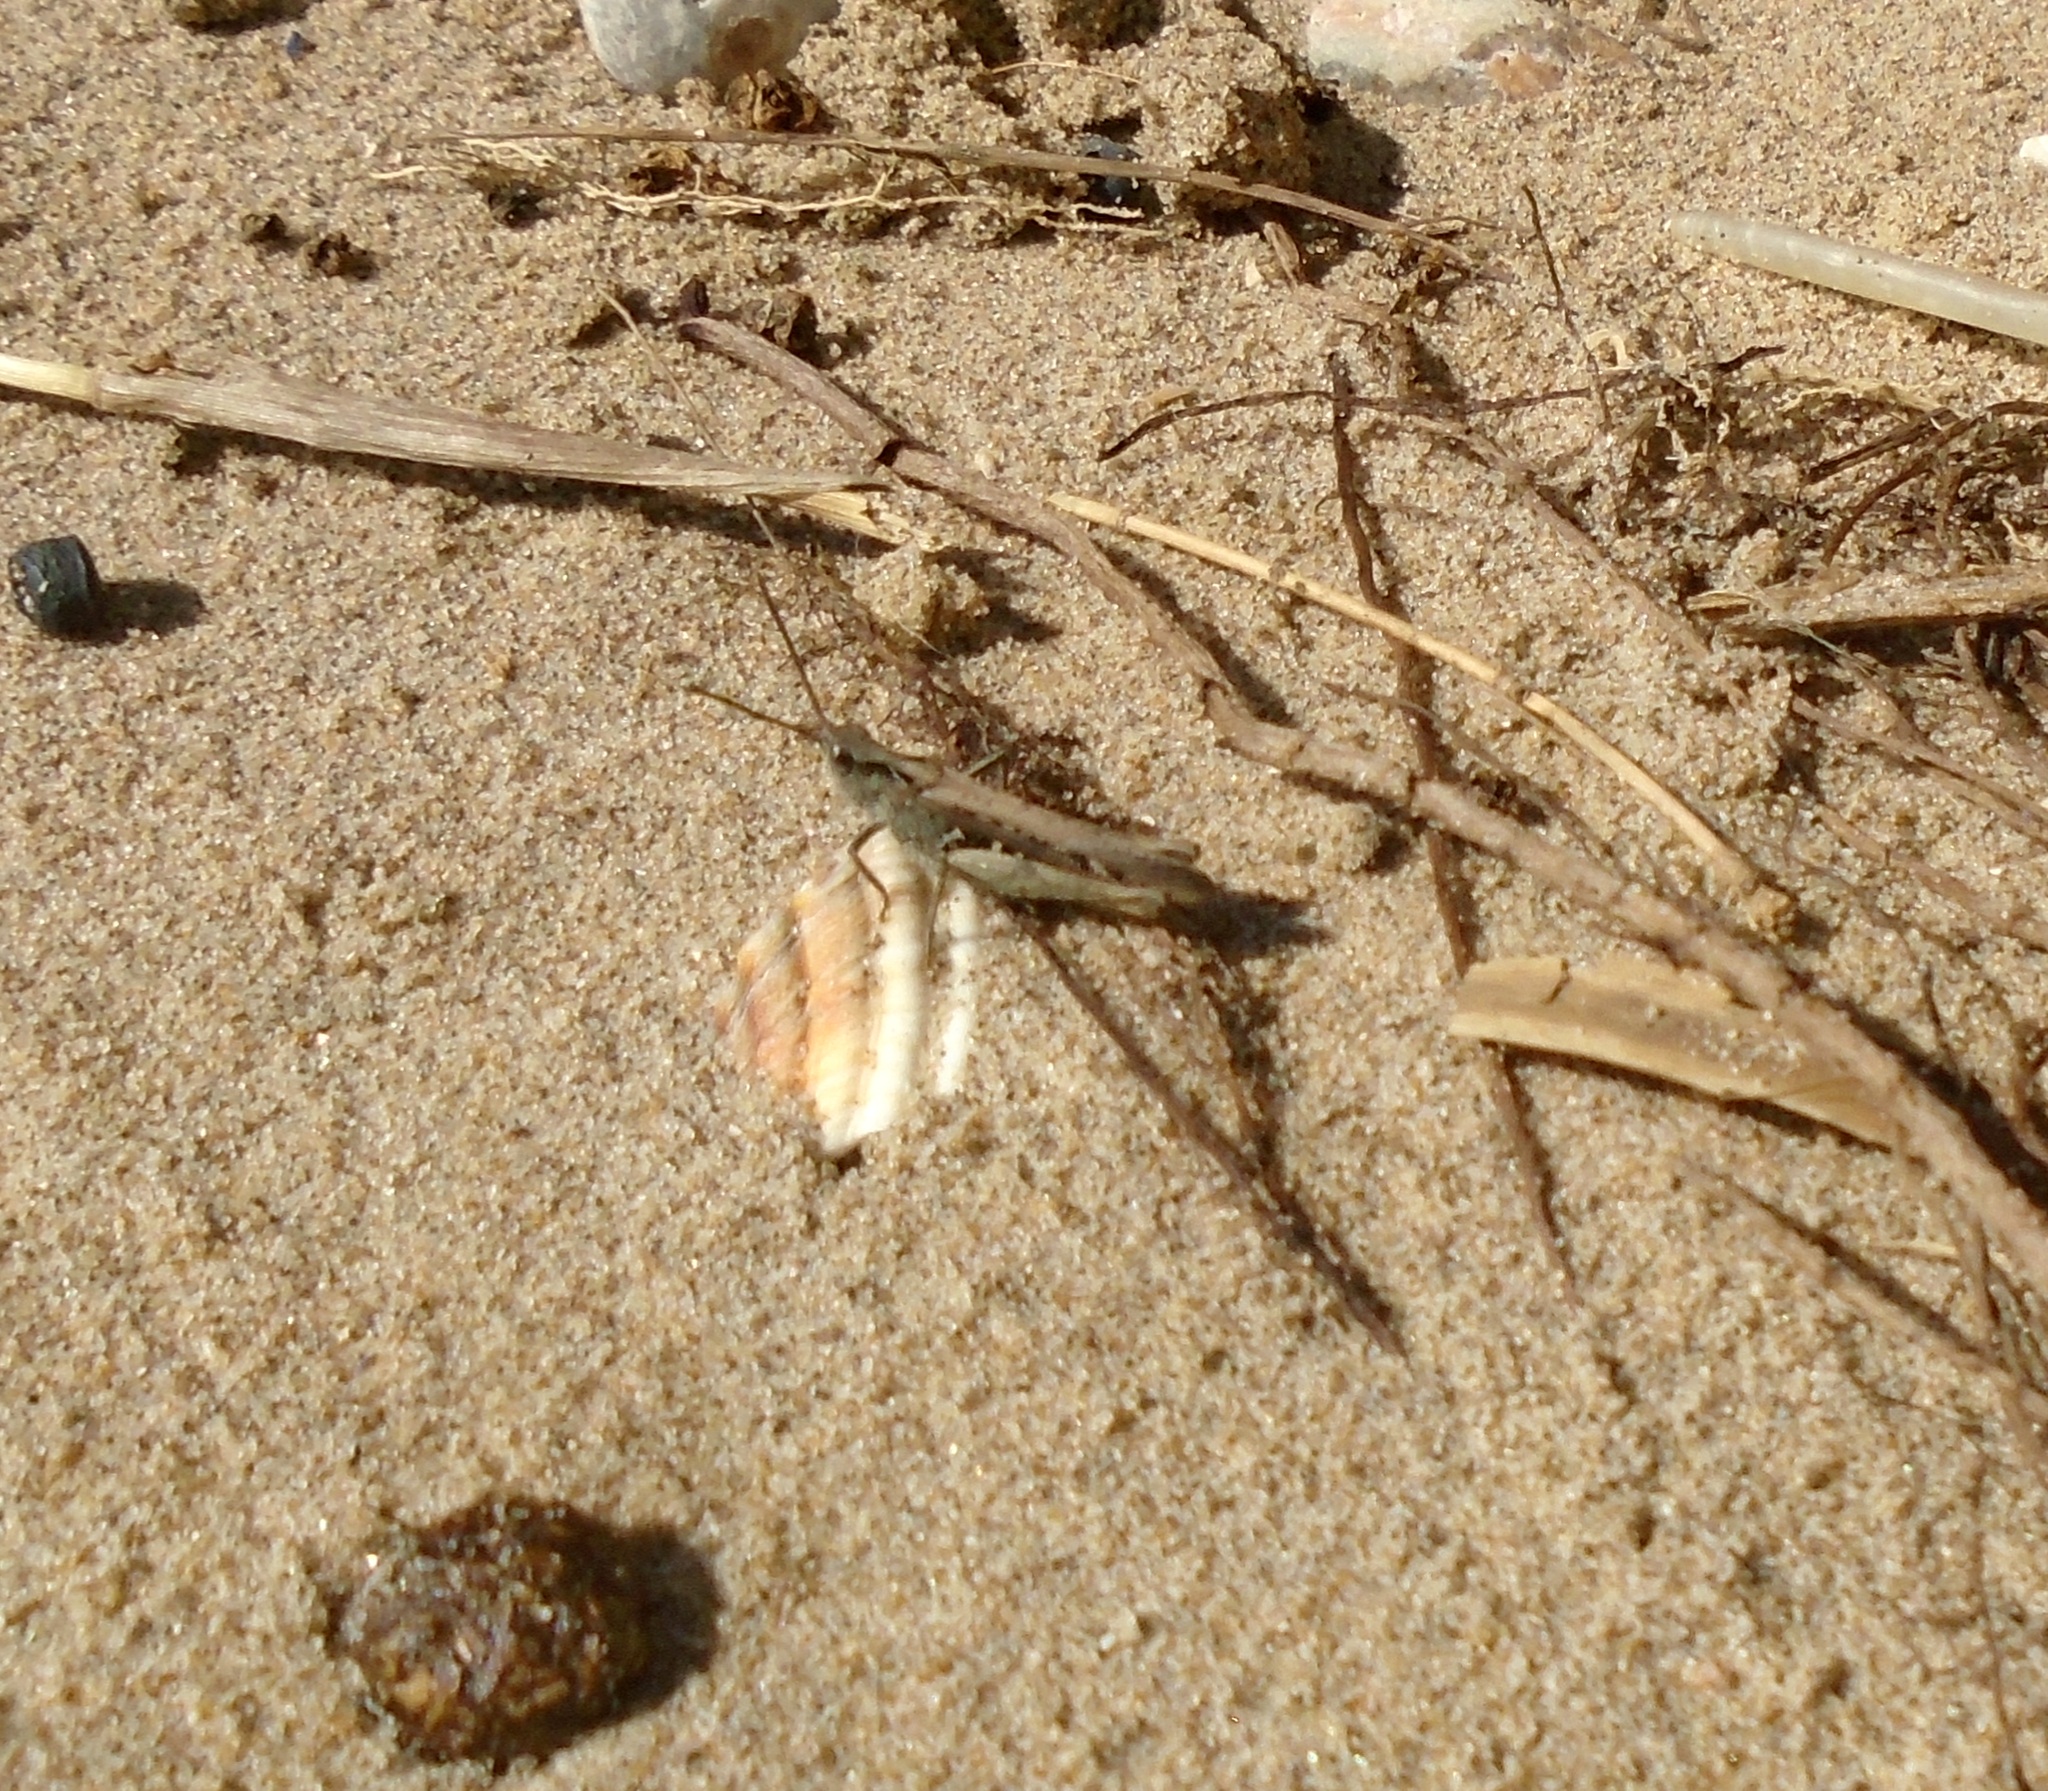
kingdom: Animalia
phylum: Arthropoda
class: Insecta
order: Orthoptera
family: Acrididae
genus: Chorthippus
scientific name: Chorthippus brunneus
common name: Field grasshopper
